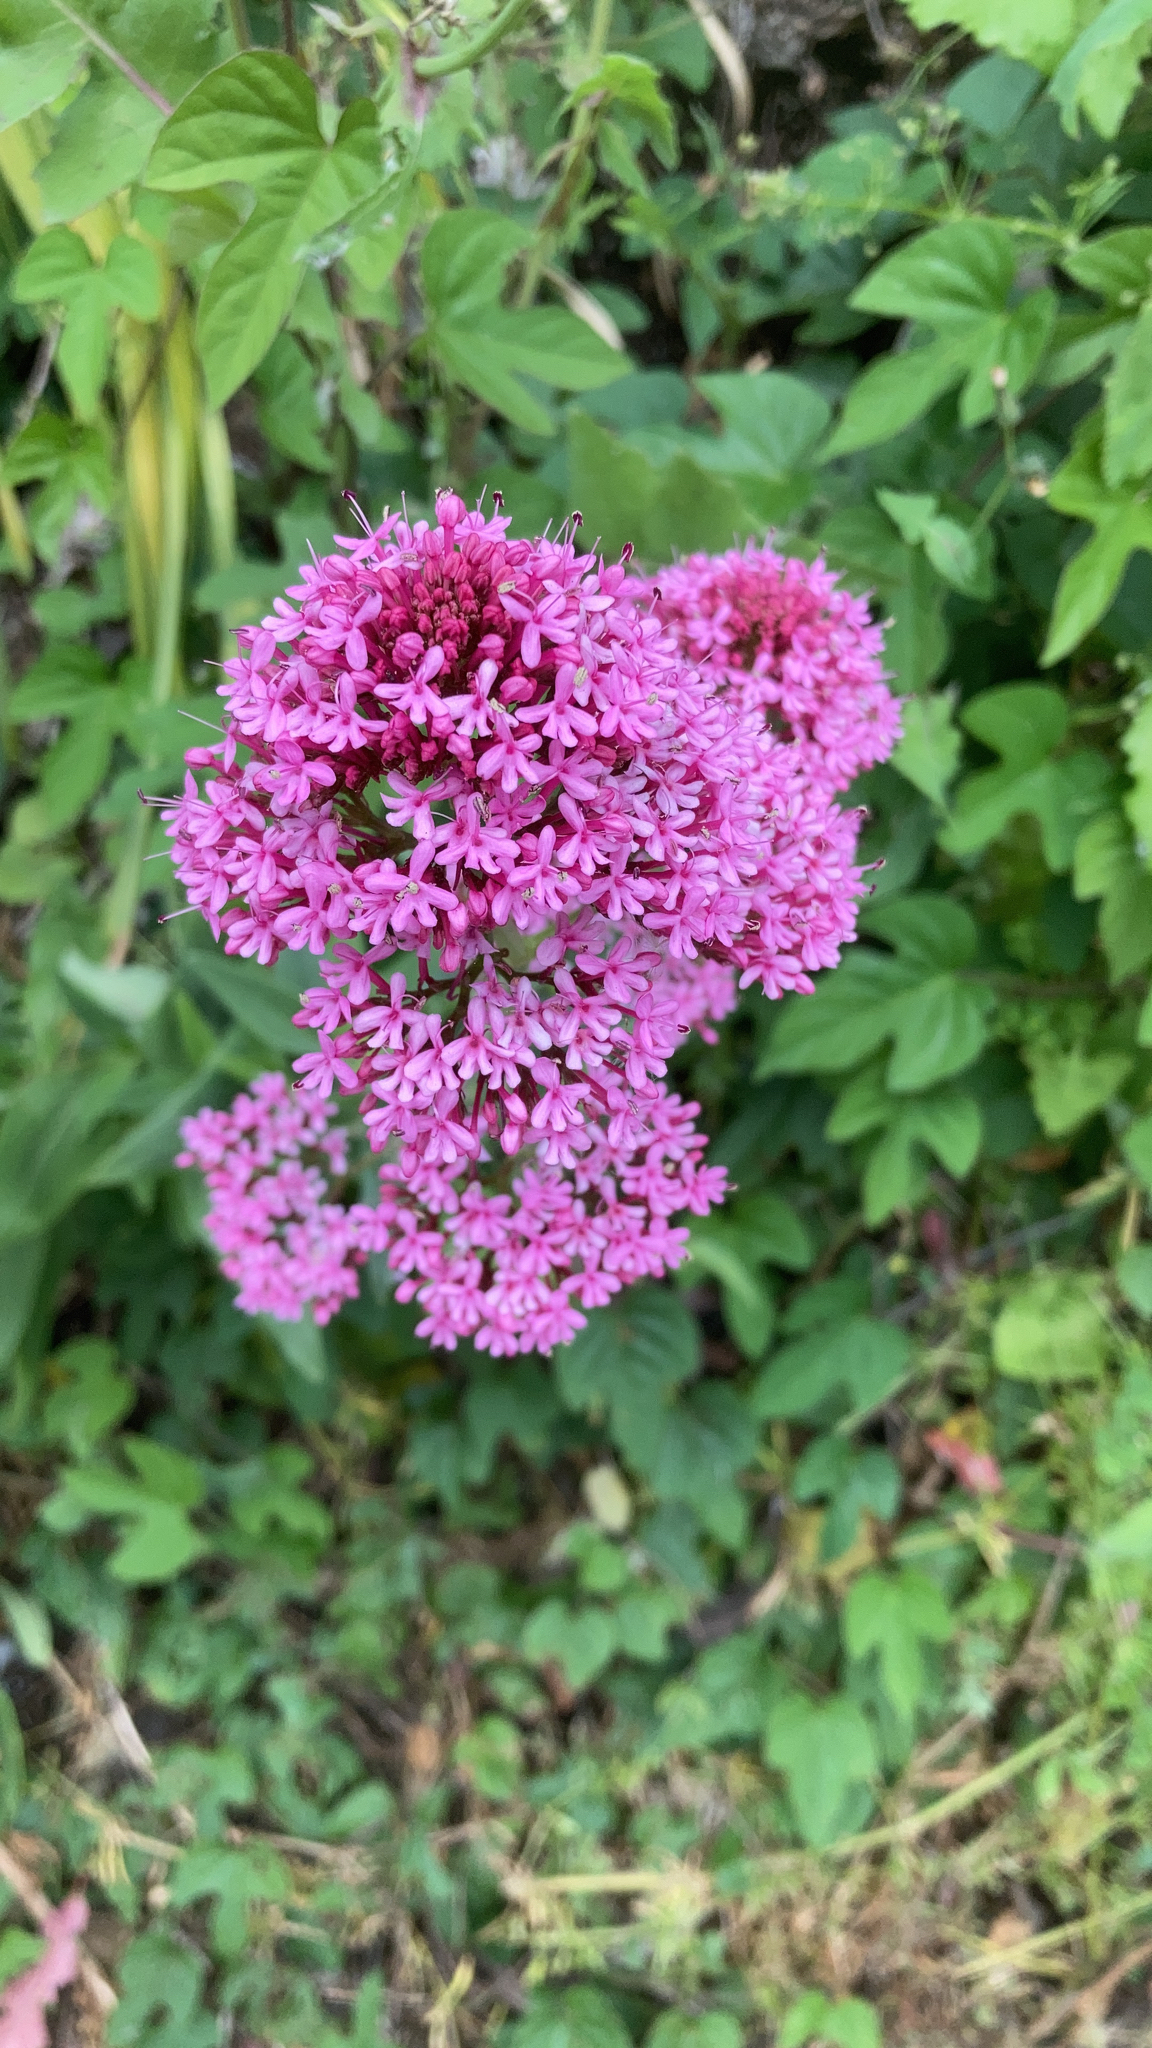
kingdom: Plantae
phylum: Tracheophyta
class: Magnoliopsida
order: Dipsacales
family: Caprifoliaceae
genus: Centranthus
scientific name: Centranthus ruber
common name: Red valerian
